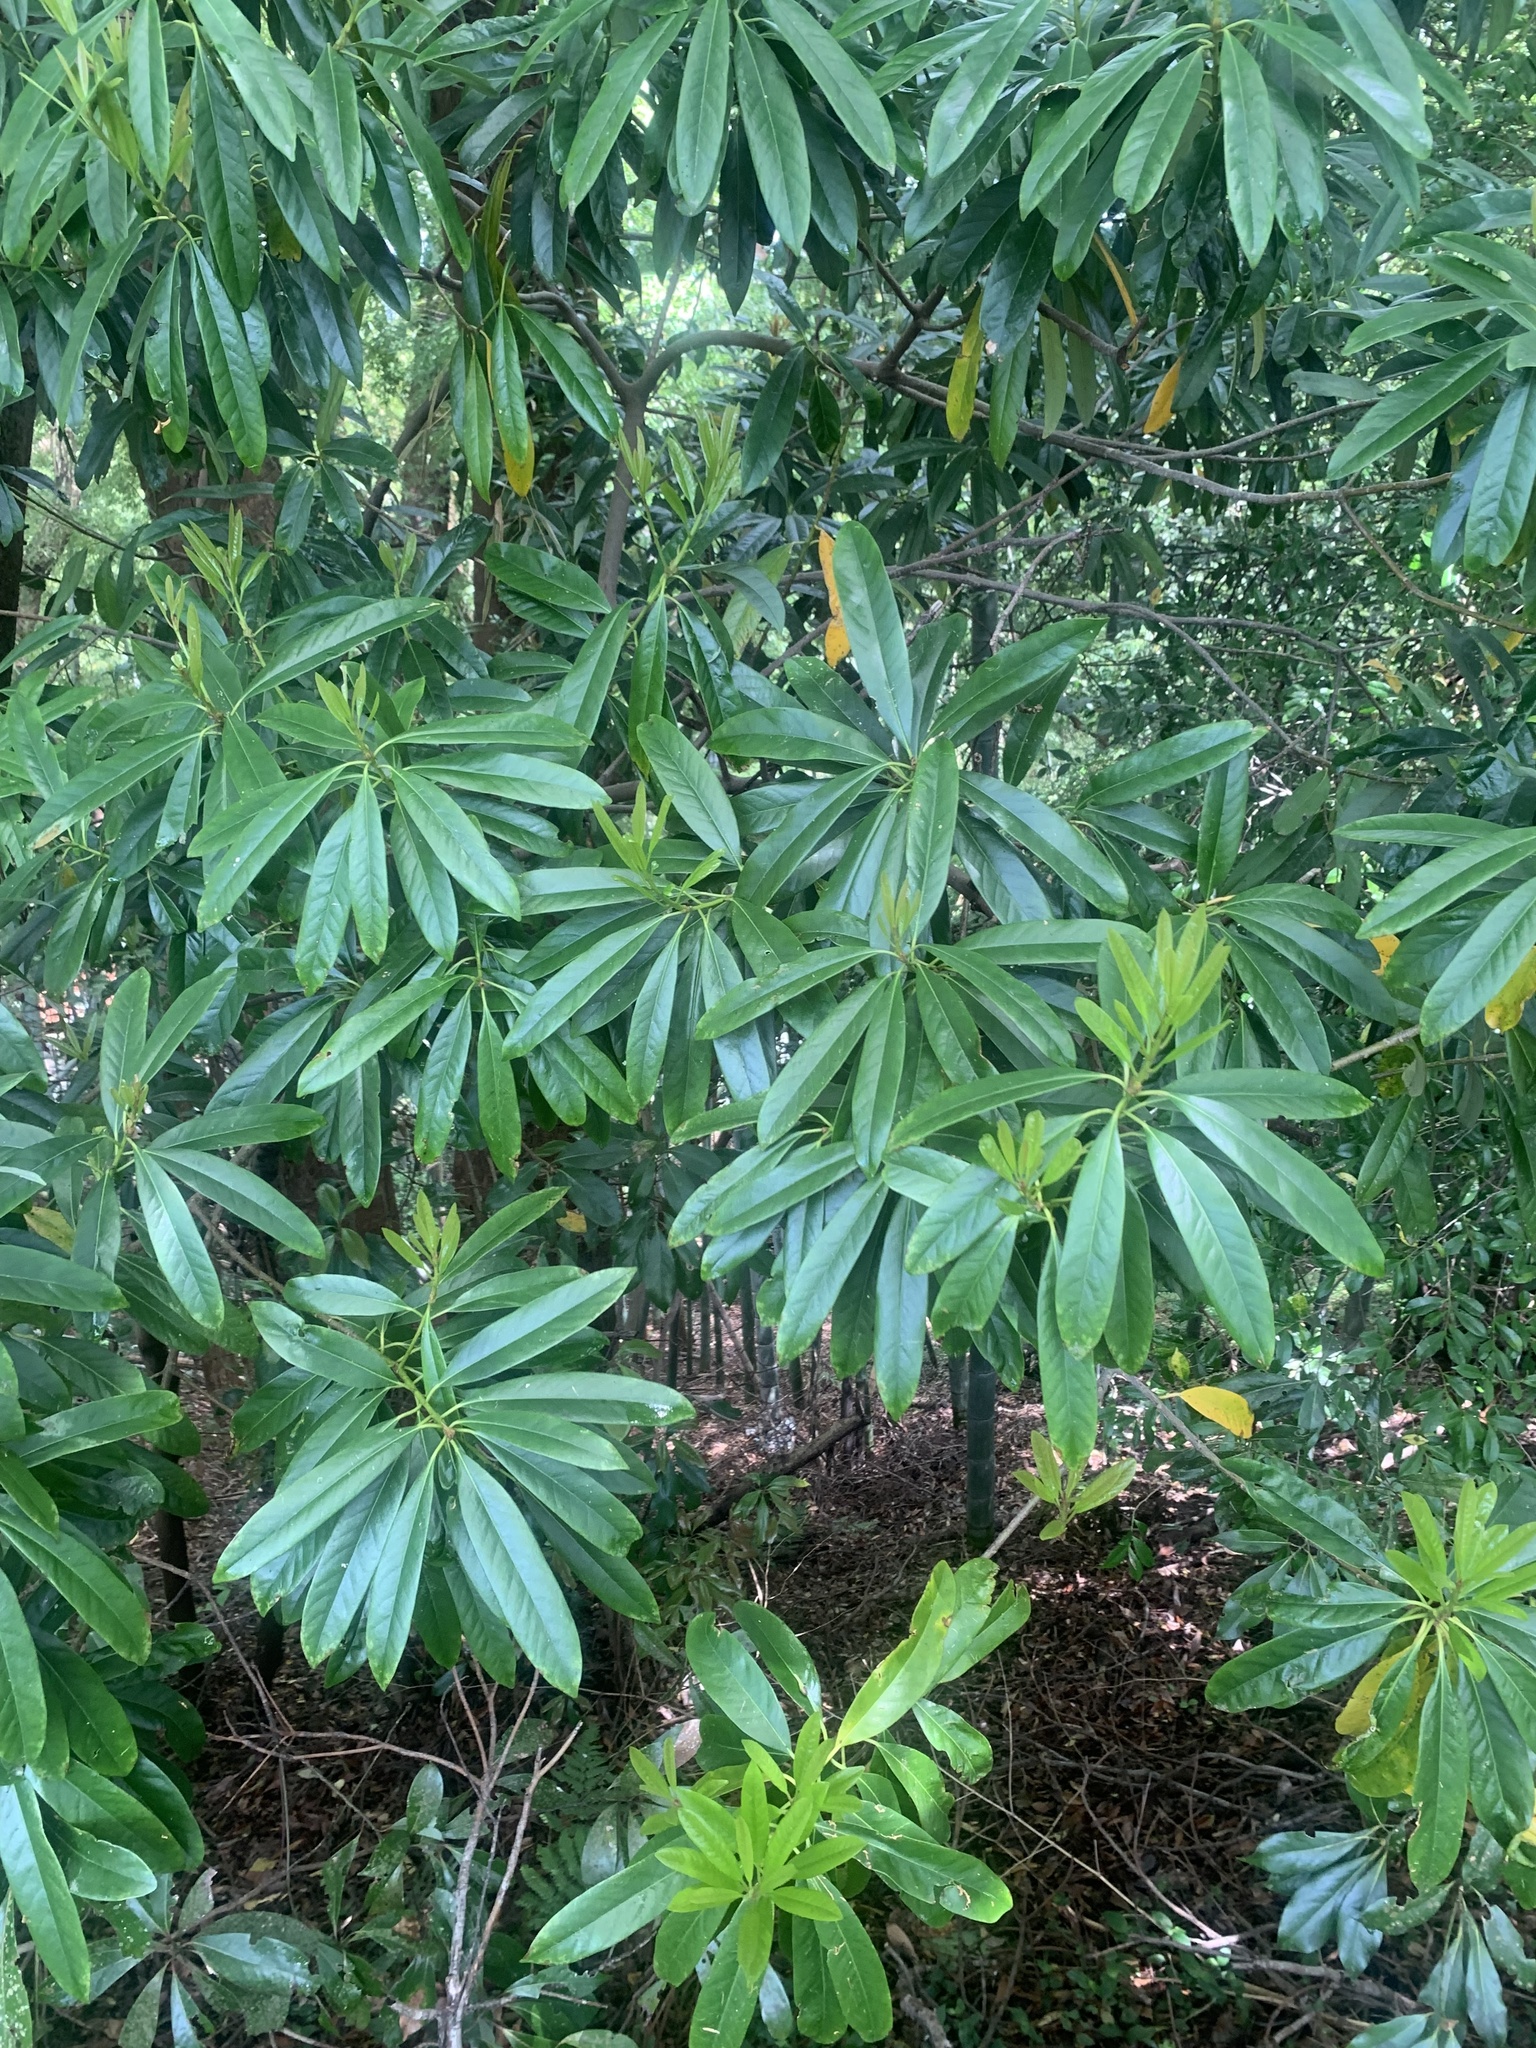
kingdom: Plantae
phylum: Tracheophyta
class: Magnoliopsida
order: Ericales
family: Symplocaceae
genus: Symplocos
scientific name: Symplocos glauca
